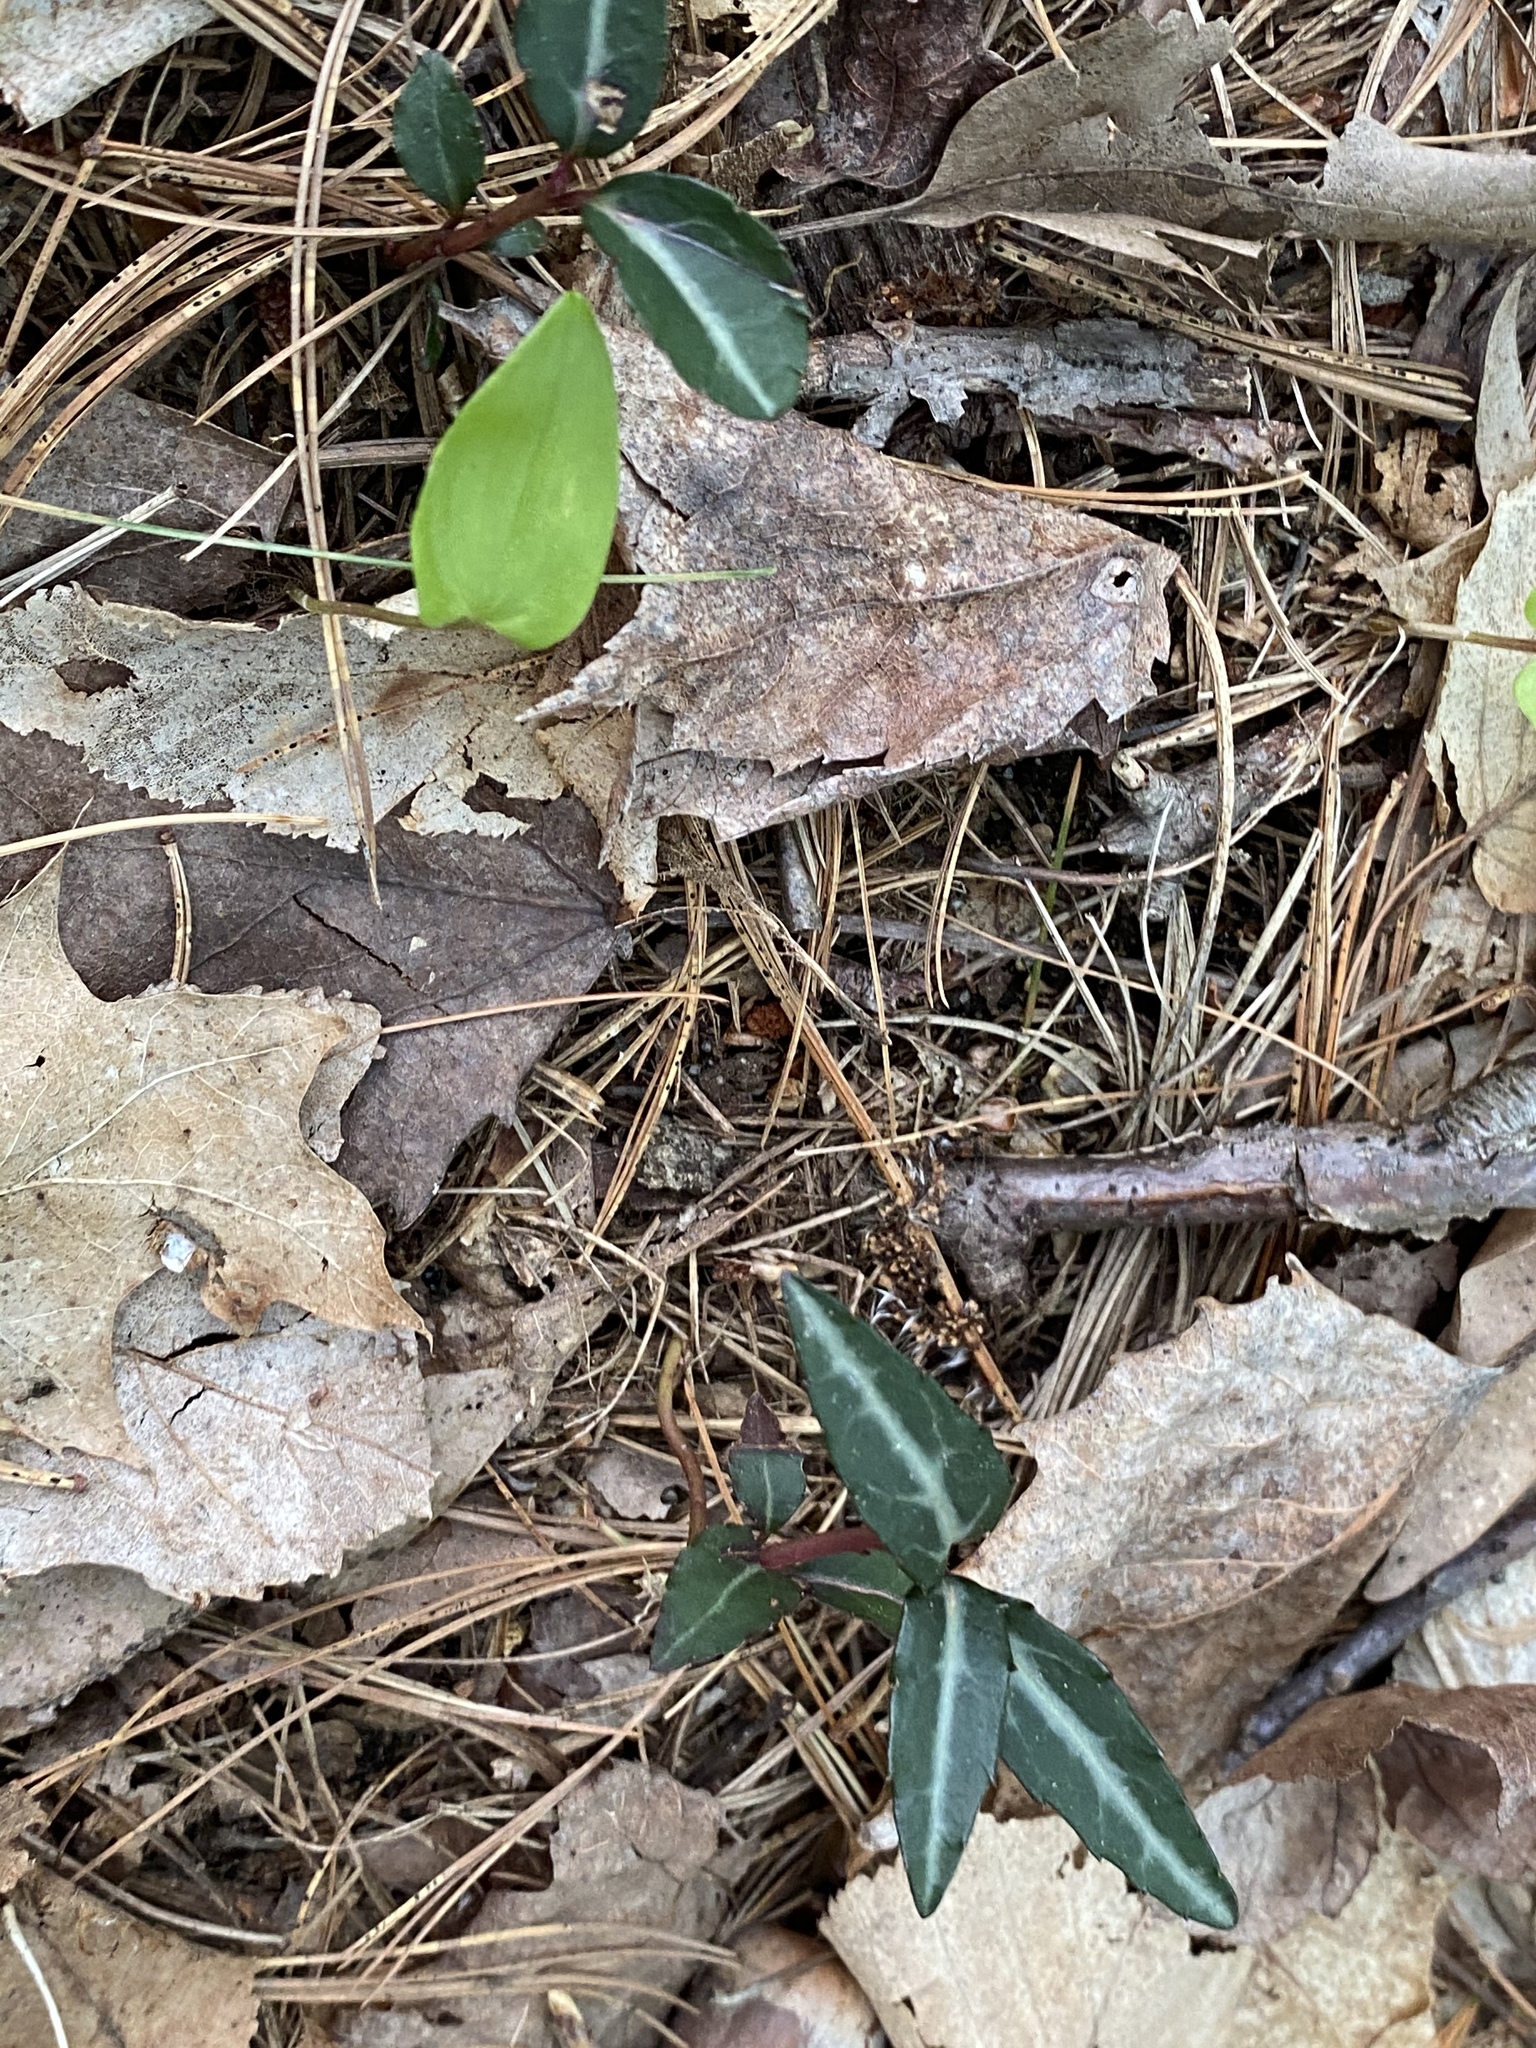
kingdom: Plantae
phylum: Tracheophyta
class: Magnoliopsida
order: Ericales
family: Ericaceae
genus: Chimaphila
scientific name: Chimaphila maculata
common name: Spotted pipsissewa
